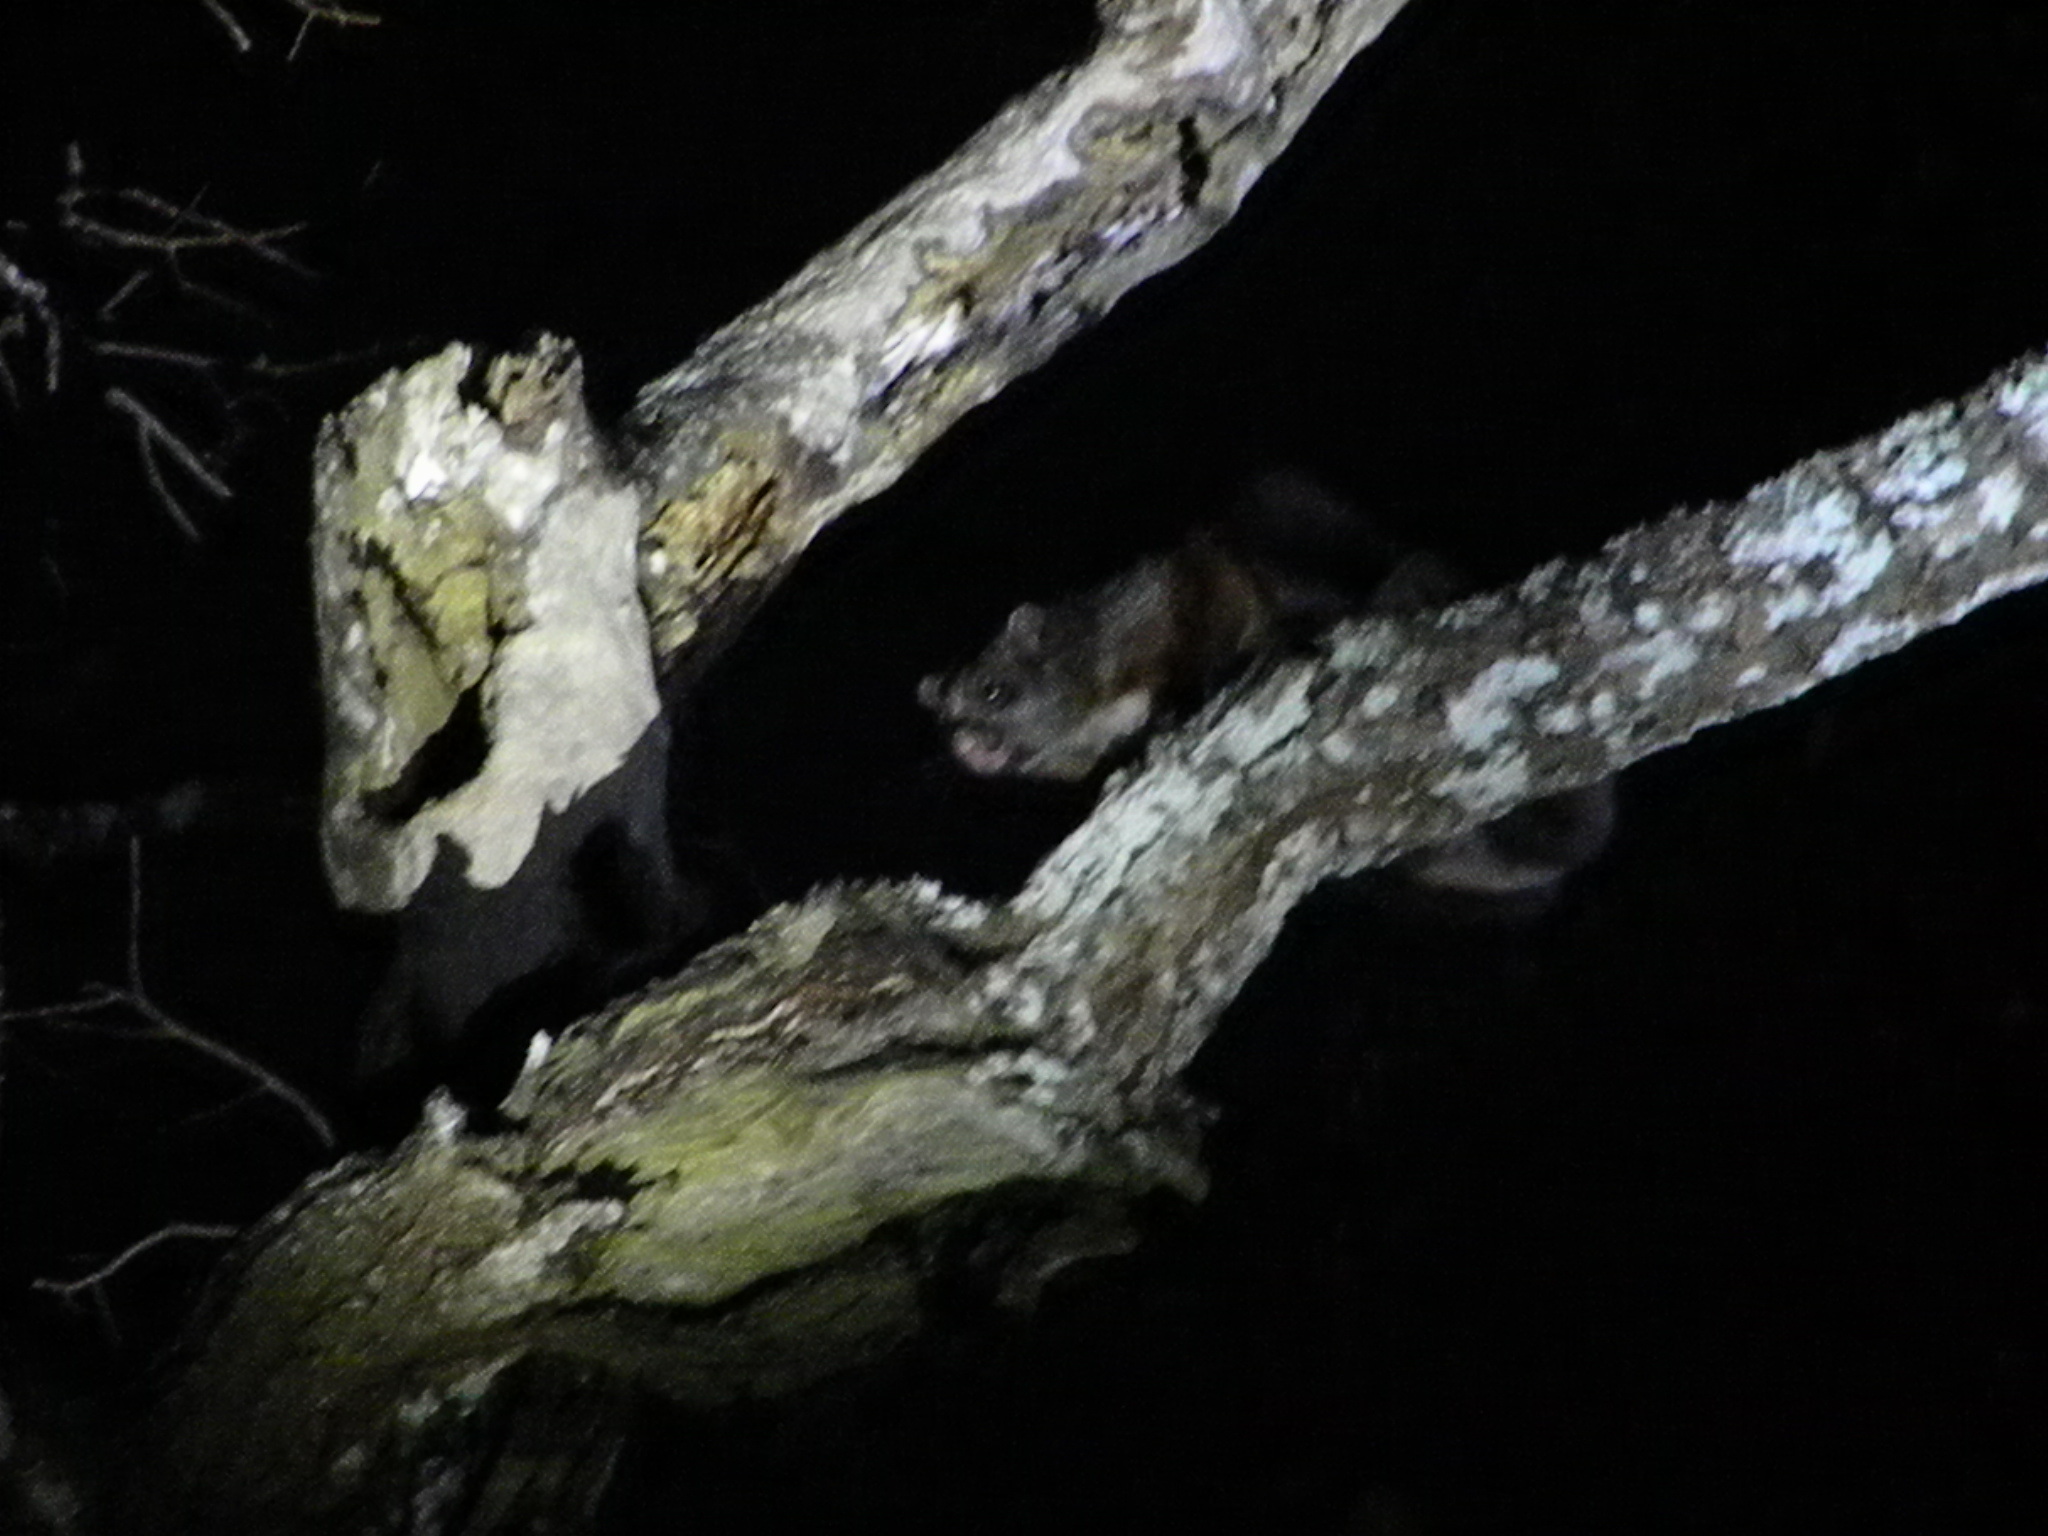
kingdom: Animalia
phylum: Chordata
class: Mammalia
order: Rodentia
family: Sciuridae
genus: Petaurista
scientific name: Petaurista philippensis
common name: Indian giant flying squirrel
